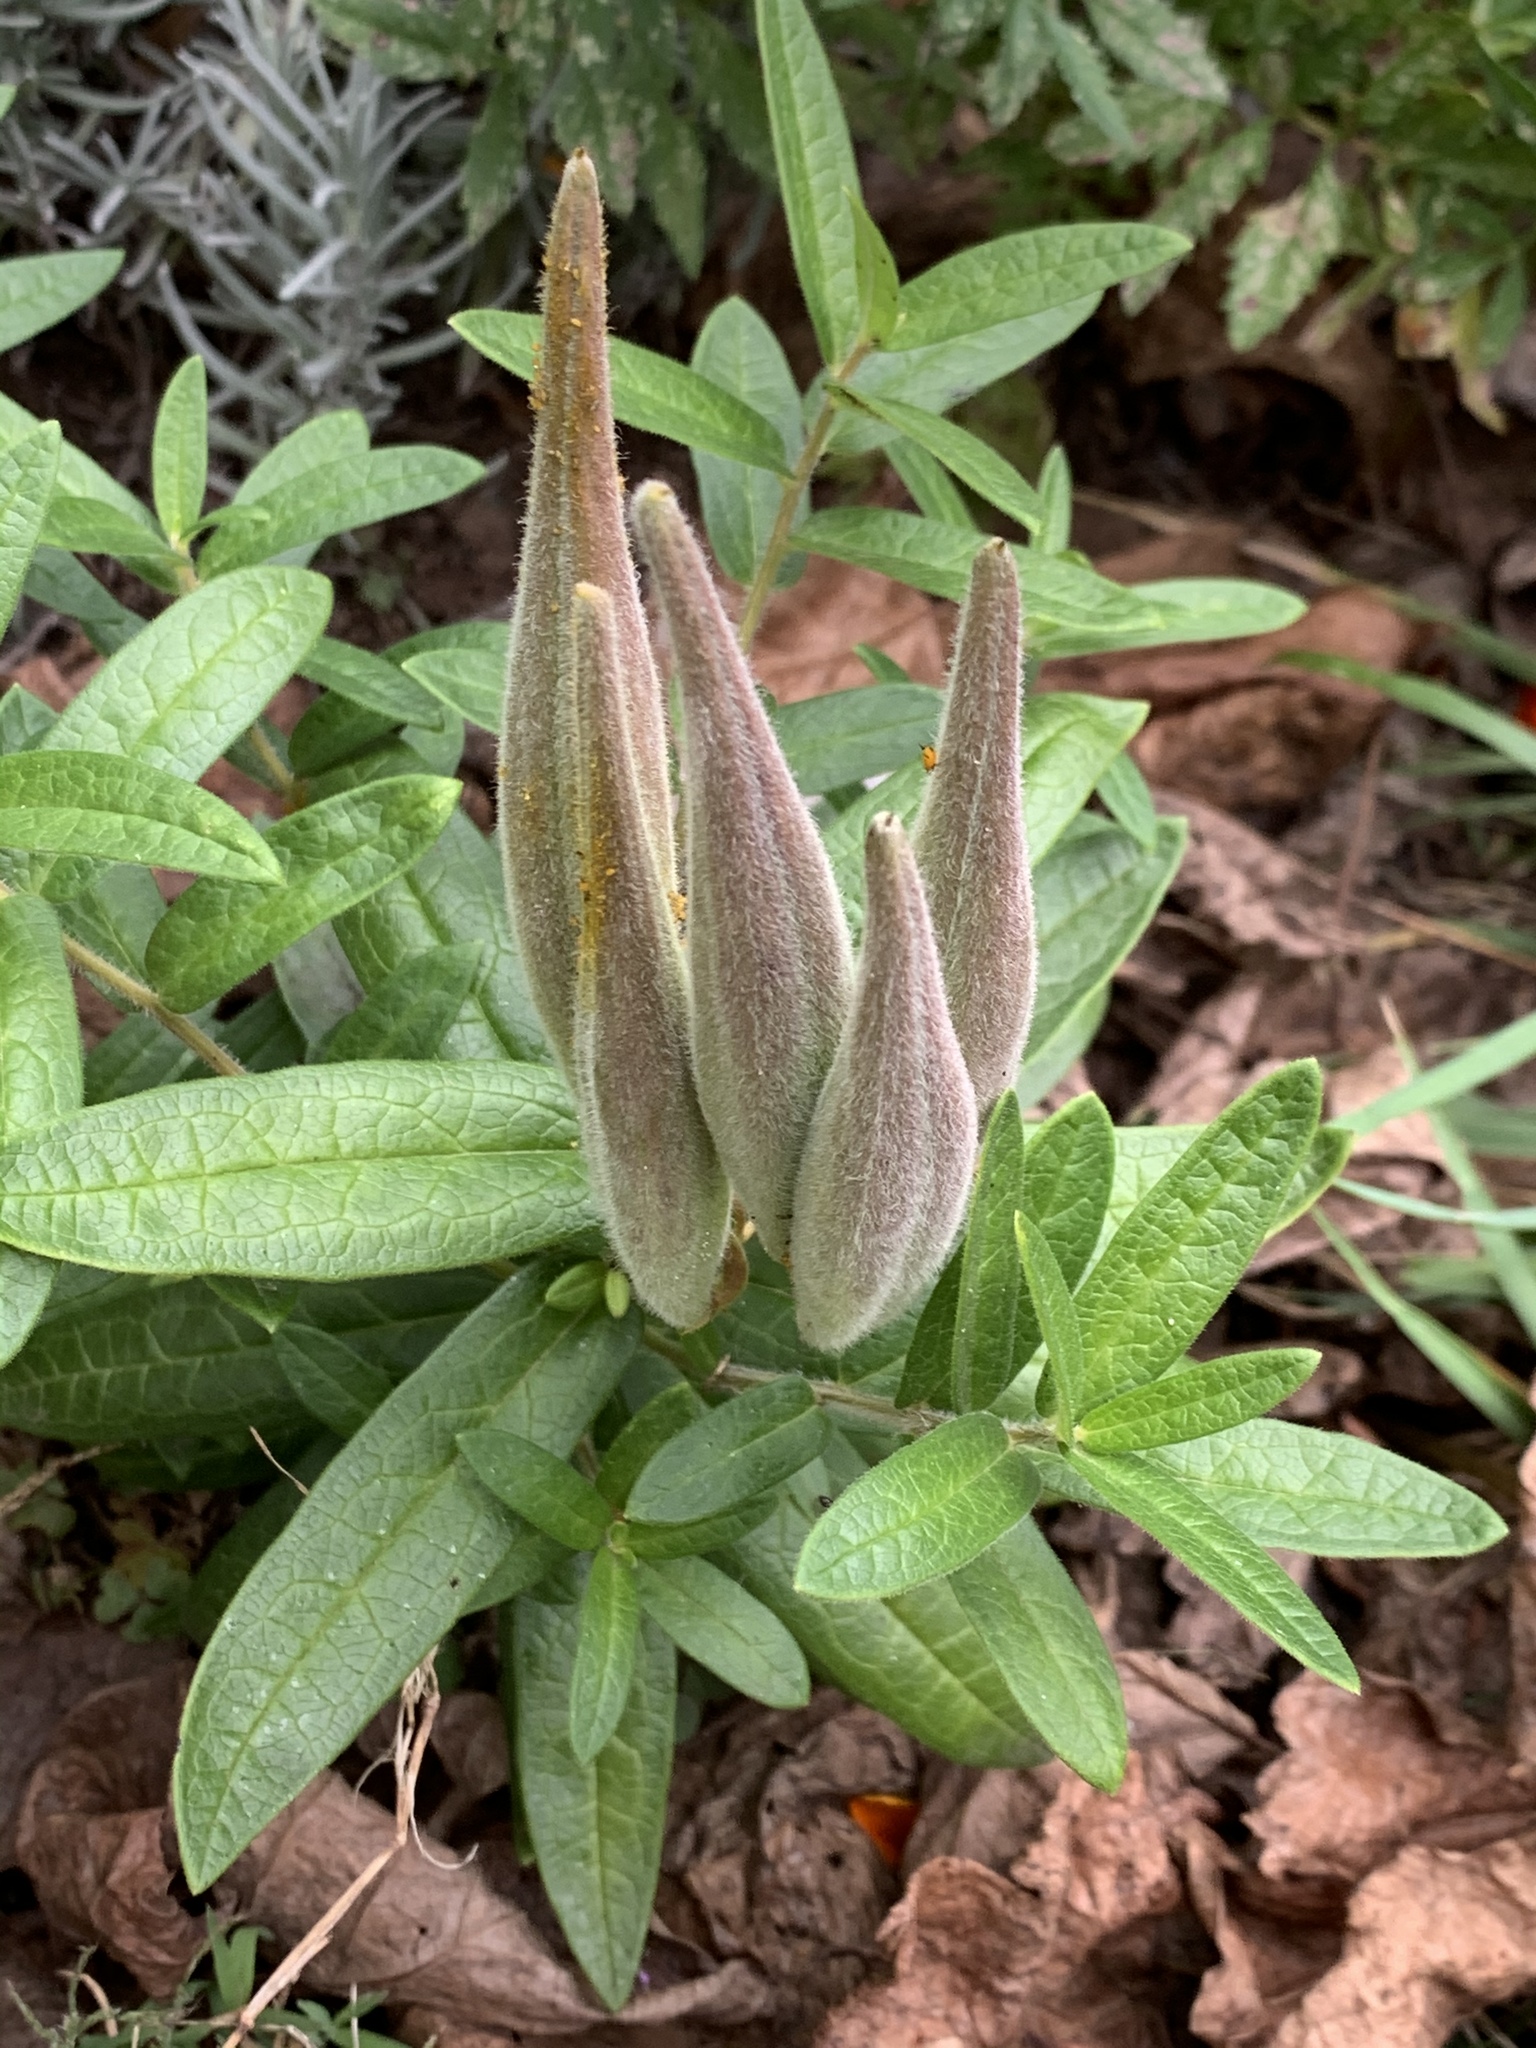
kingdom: Plantae
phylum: Tracheophyta
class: Magnoliopsida
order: Gentianales
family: Apocynaceae
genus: Asclepias
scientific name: Asclepias tuberosa
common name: Butterfly milkweed
